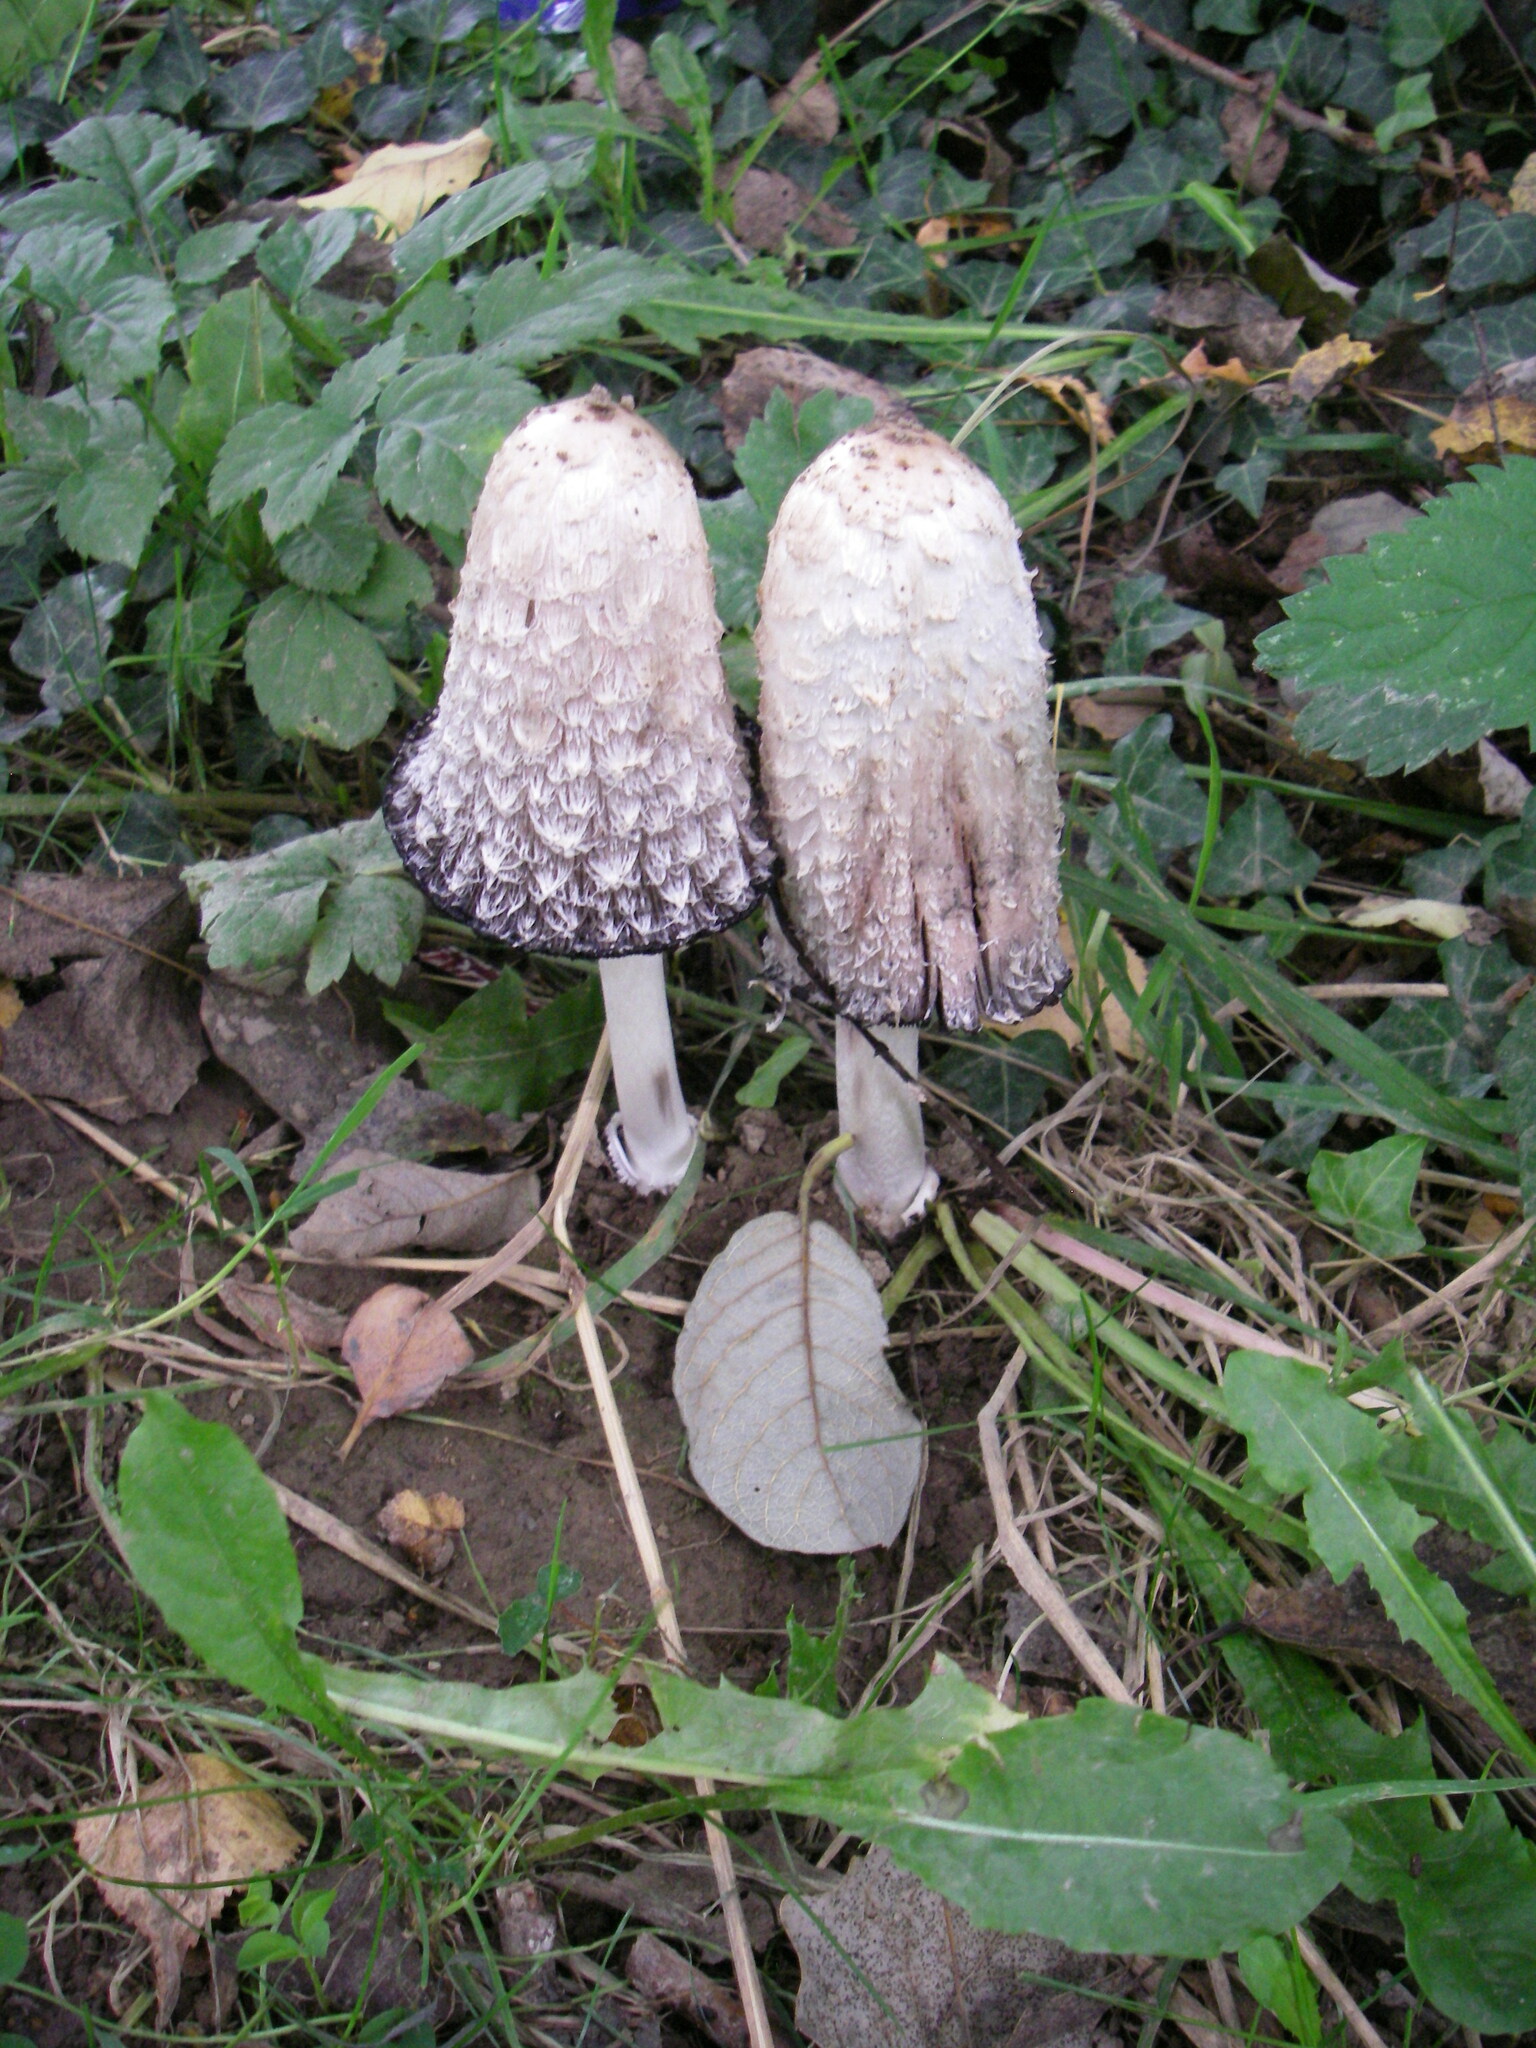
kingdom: Fungi
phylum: Basidiomycota
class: Agaricomycetes
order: Agaricales
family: Agaricaceae
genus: Coprinus
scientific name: Coprinus comatus
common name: Lawyer's wig
